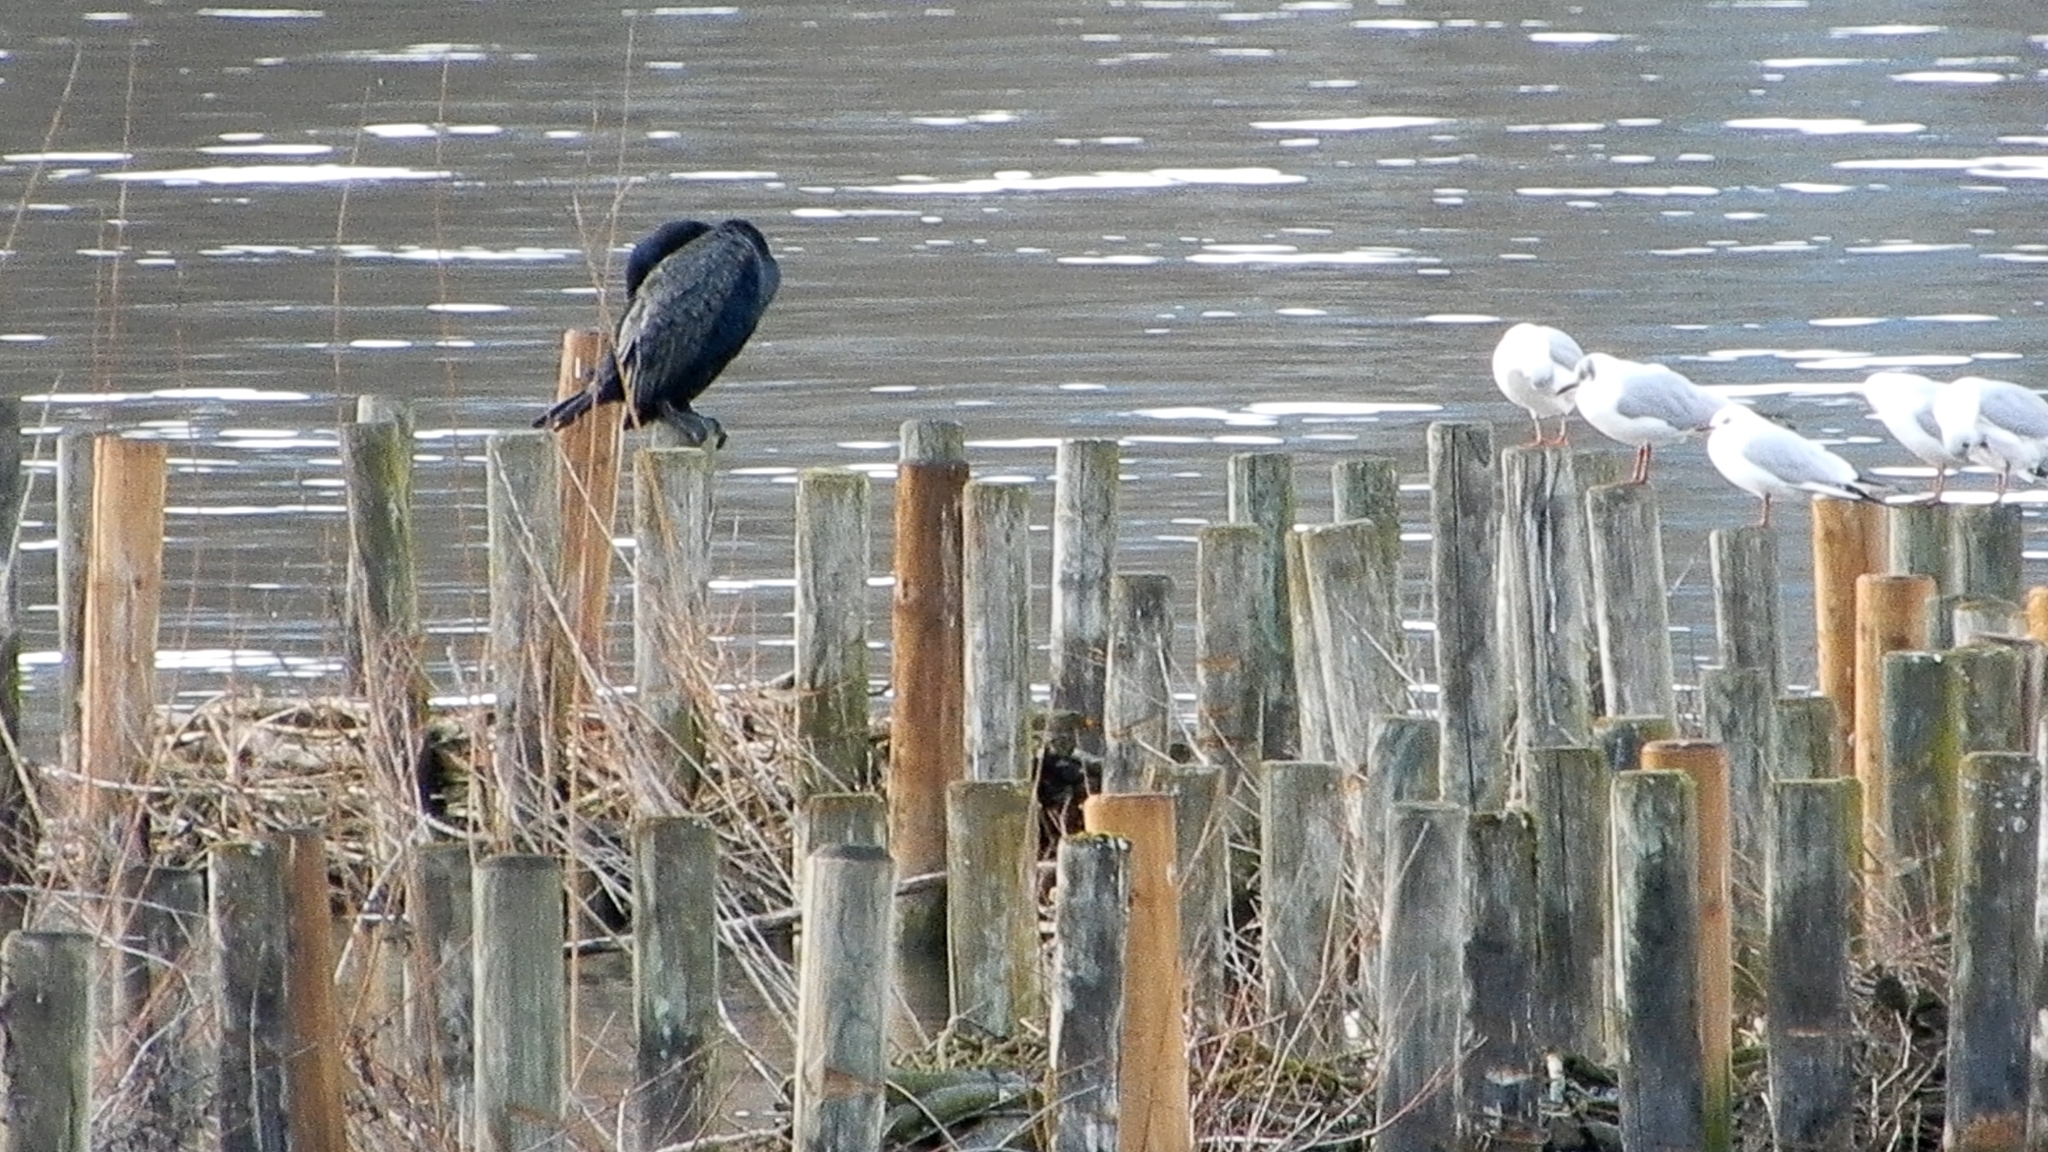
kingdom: Animalia
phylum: Chordata
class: Aves
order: Suliformes
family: Phalacrocoracidae
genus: Phalacrocorax
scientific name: Phalacrocorax carbo
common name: Great cormorant
